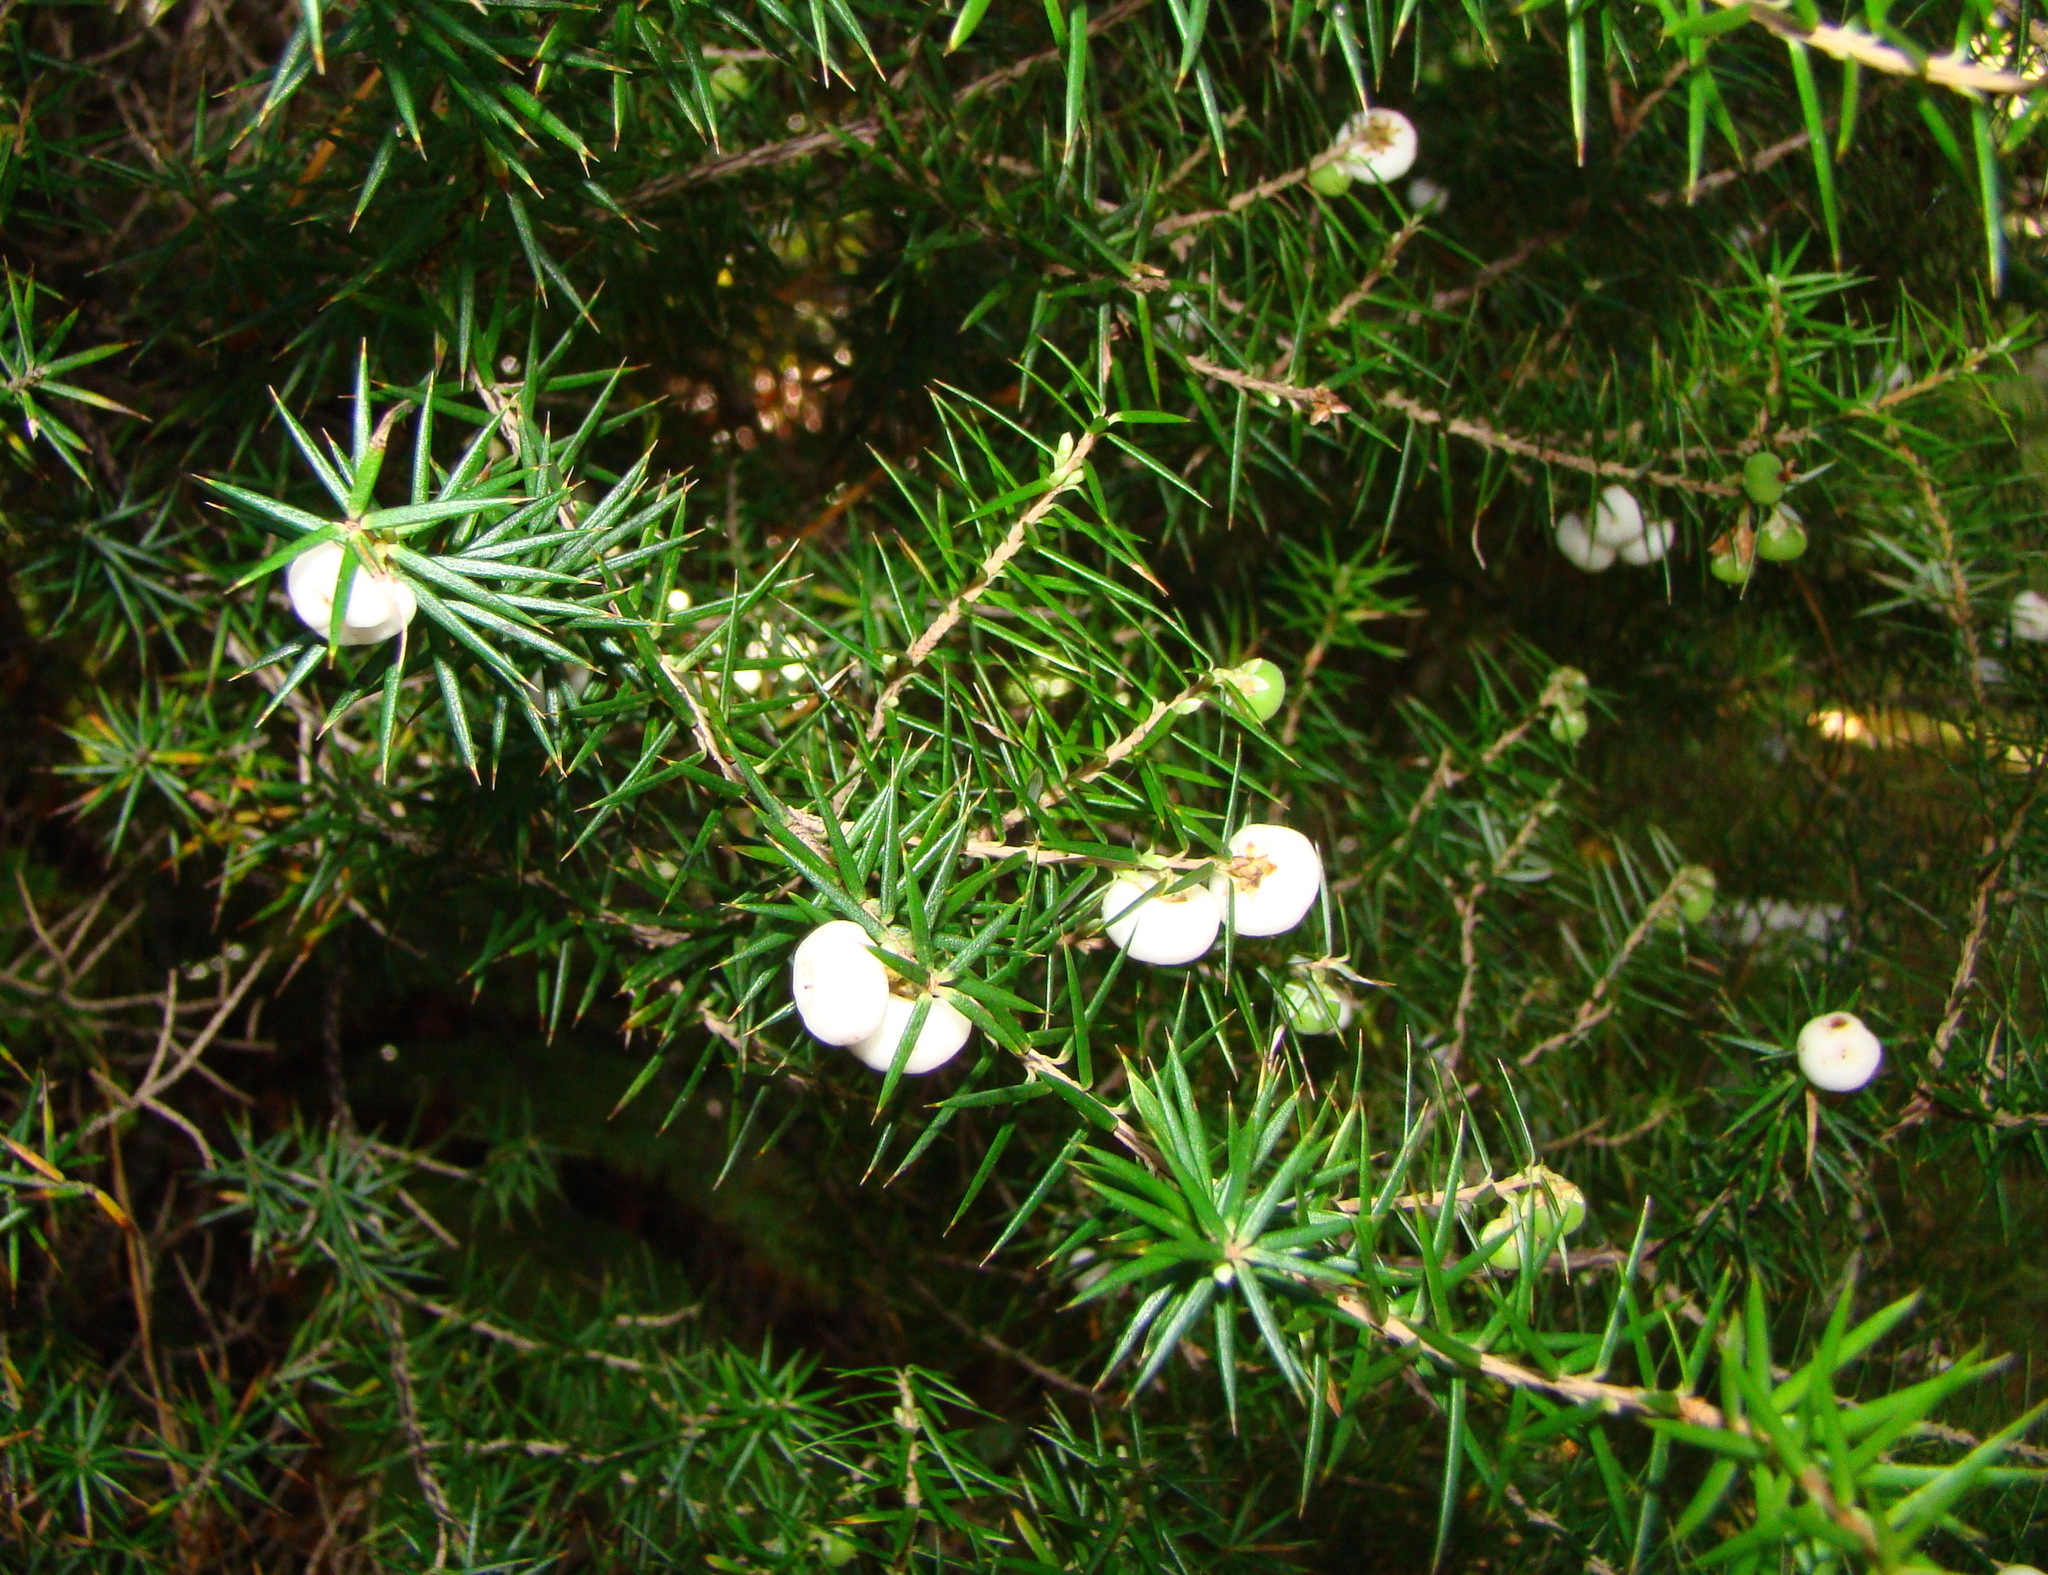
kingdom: Plantae
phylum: Tracheophyta
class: Magnoliopsida
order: Ericales
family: Ericaceae
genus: Leptecophylla
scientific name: Leptecophylla juniperina
